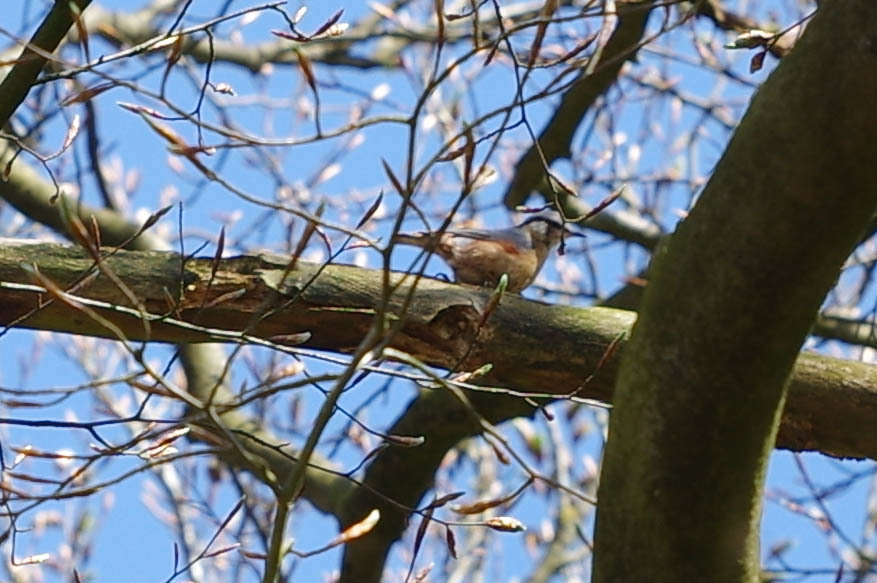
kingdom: Animalia
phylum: Chordata
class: Aves
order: Passeriformes
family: Sittidae
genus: Sitta
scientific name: Sitta europaea
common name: Eurasian nuthatch
